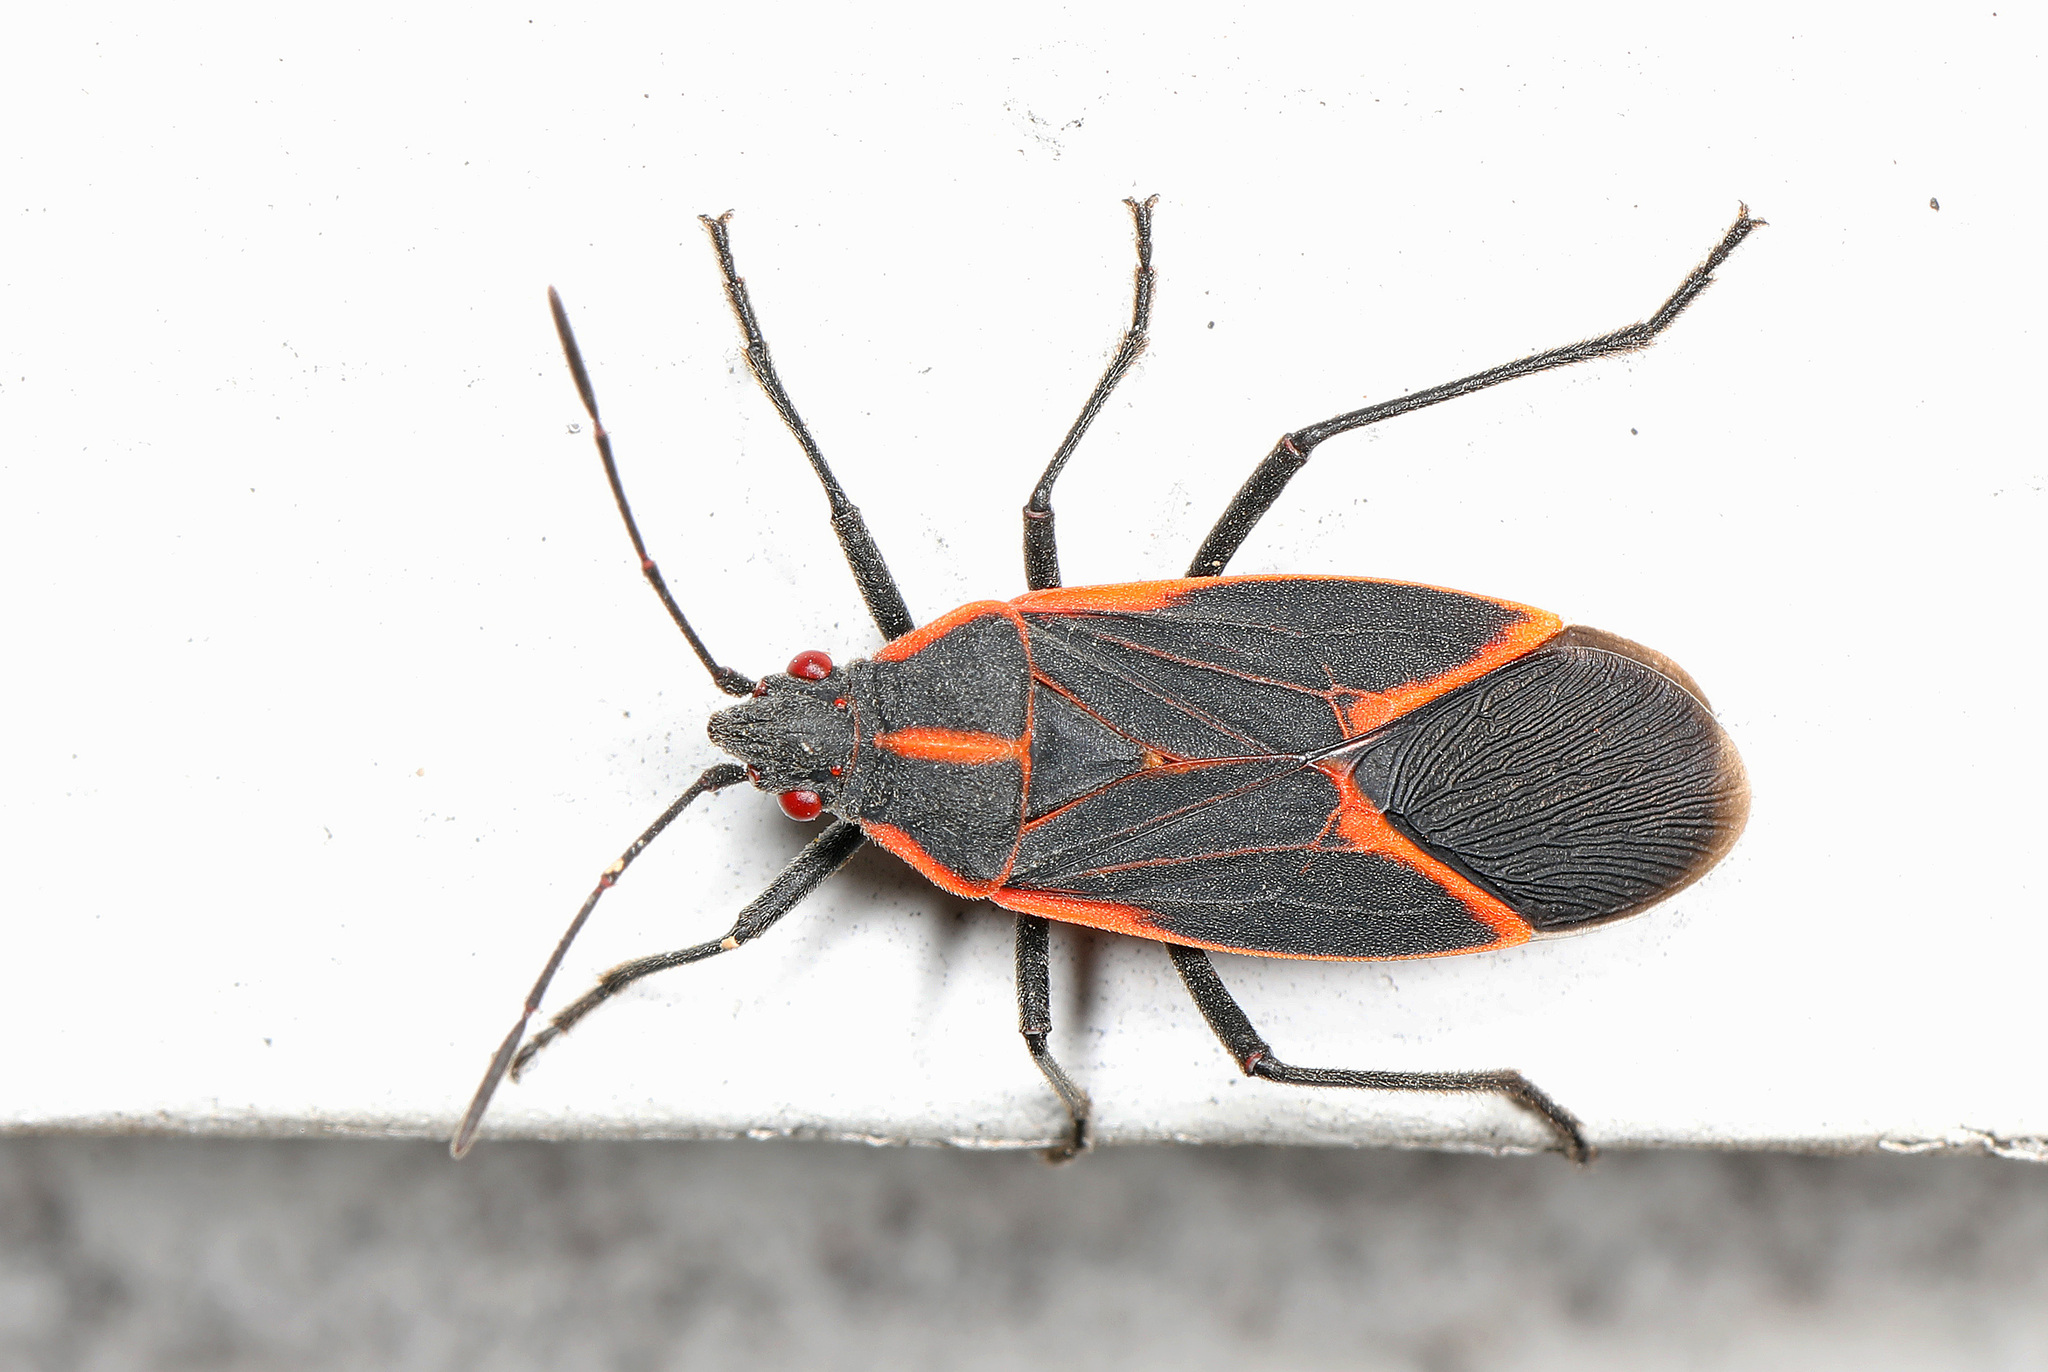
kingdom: Animalia
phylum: Arthropoda
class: Insecta
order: Hemiptera
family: Rhopalidae
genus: Boisea
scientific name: Boisea trivittata
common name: Boxelder bug
